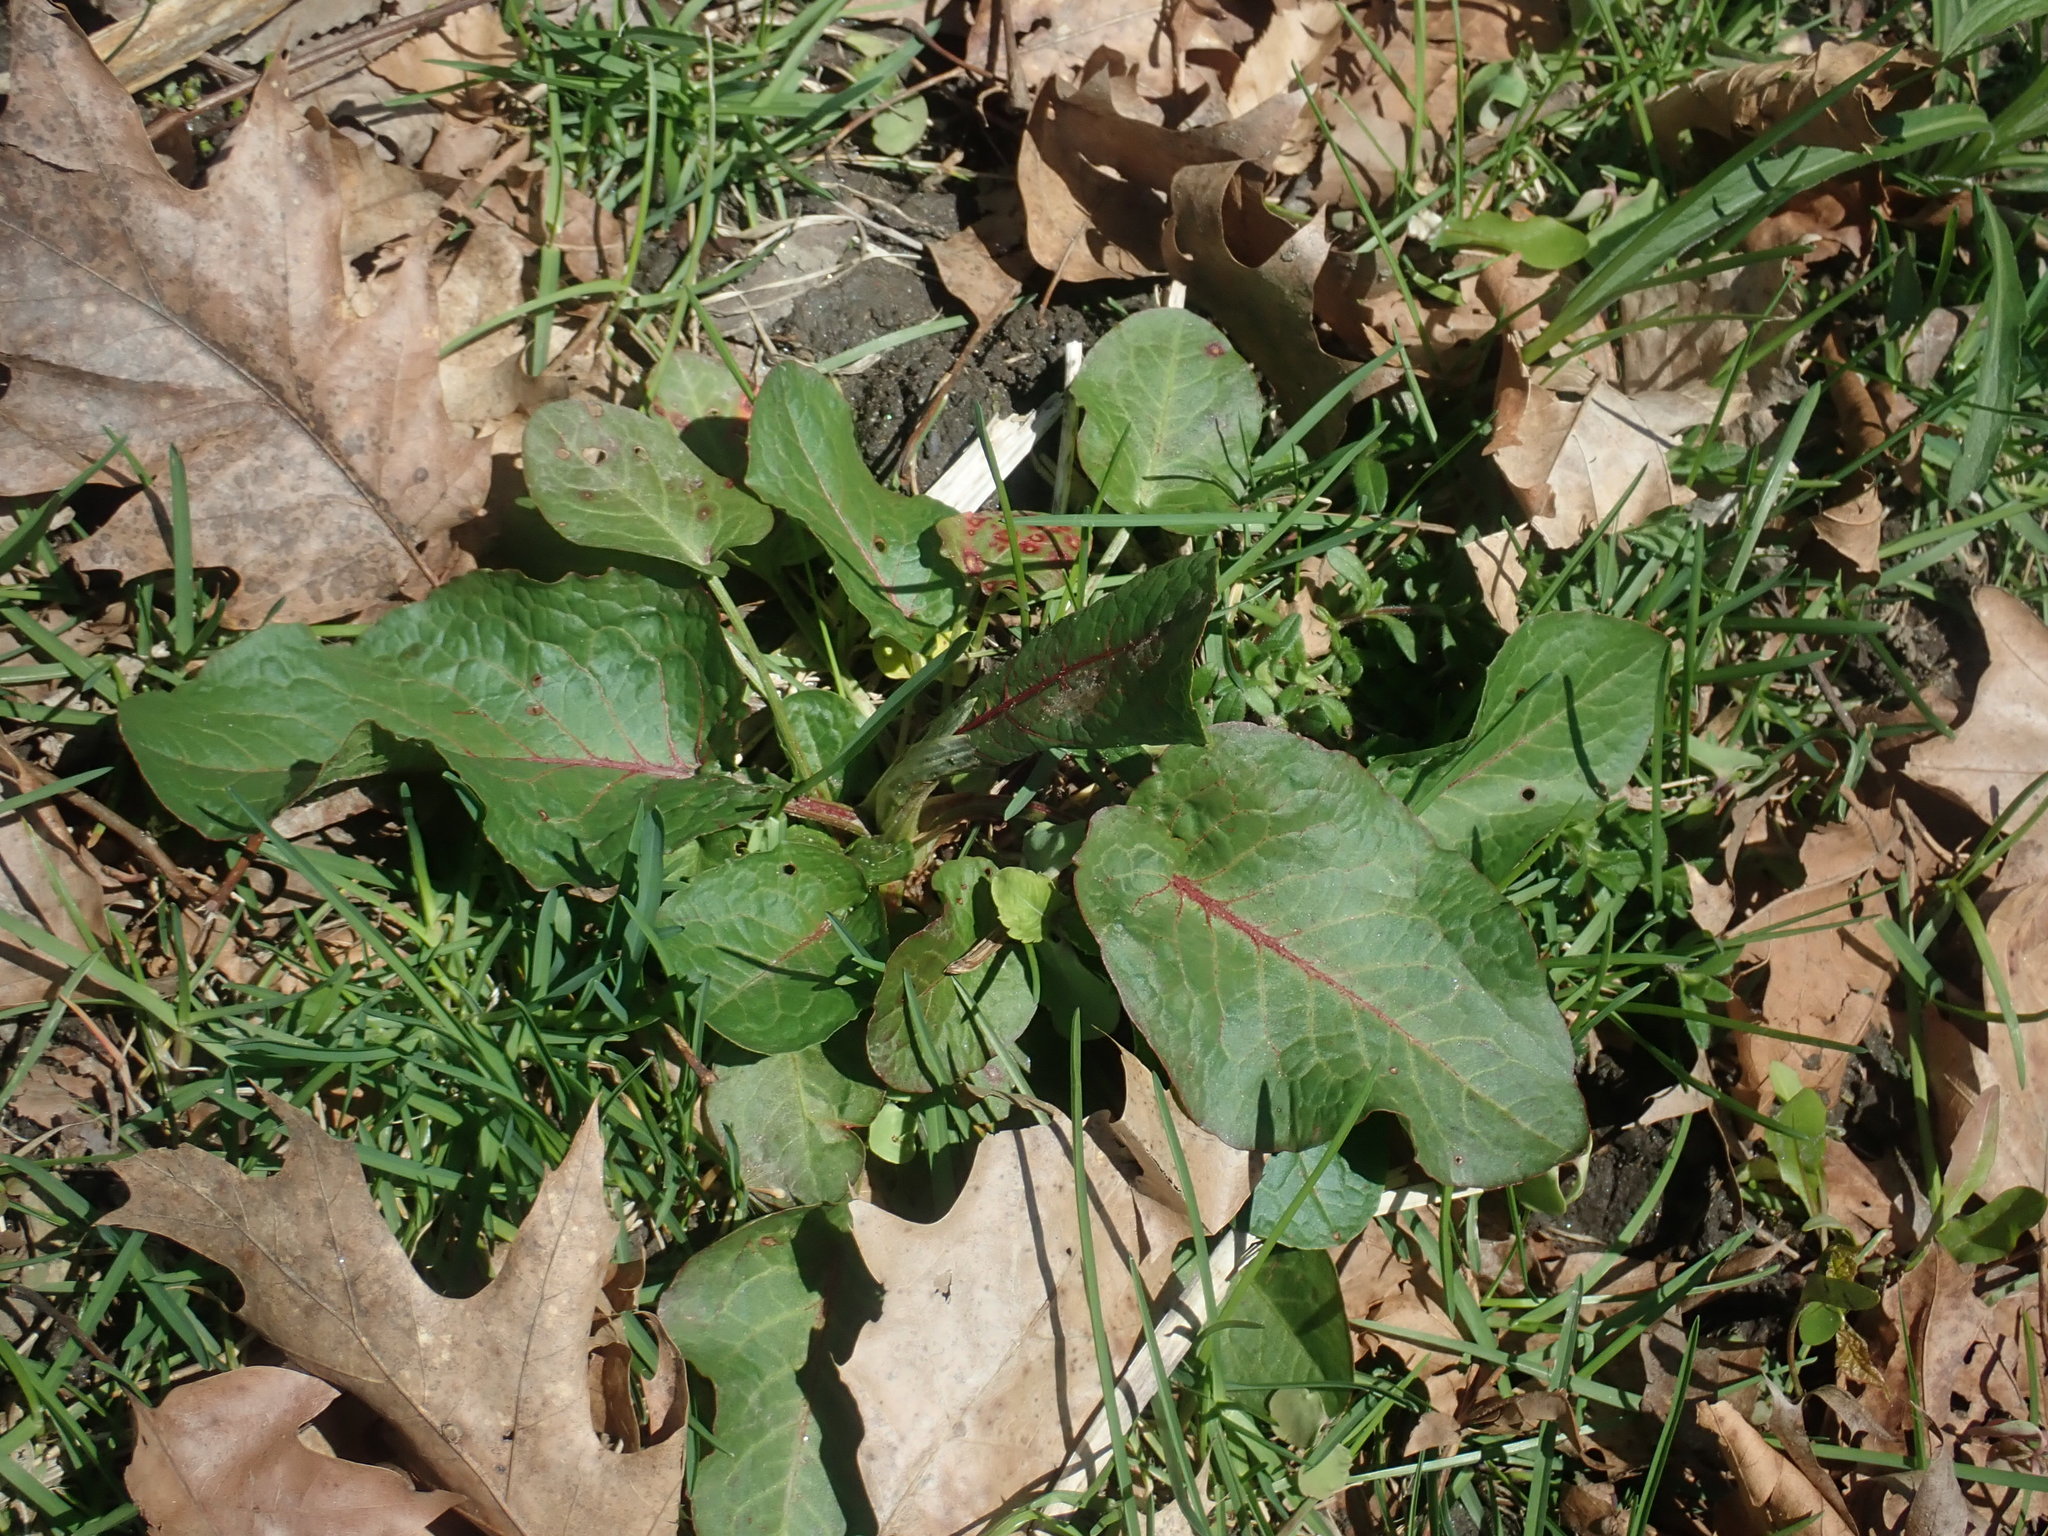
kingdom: Plantae
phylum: Tracheophyta
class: Magnoliopsida
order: Caryophyllales
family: Polygonaceae
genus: Rumex
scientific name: Rumex obtusifolius
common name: Bitter dock
